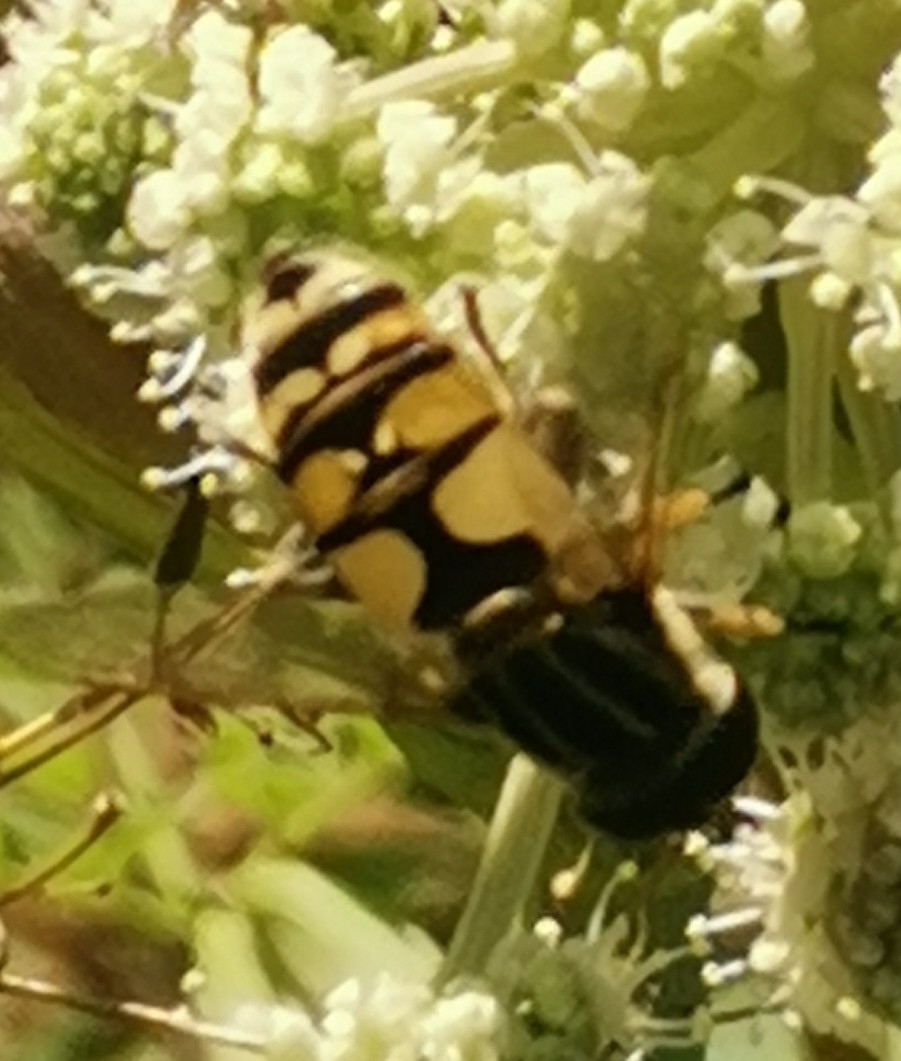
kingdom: Animalia
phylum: Arthropoda
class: Insecta
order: Diptera
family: Syrphidae
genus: Helophilus
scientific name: Helophilus pendulus
